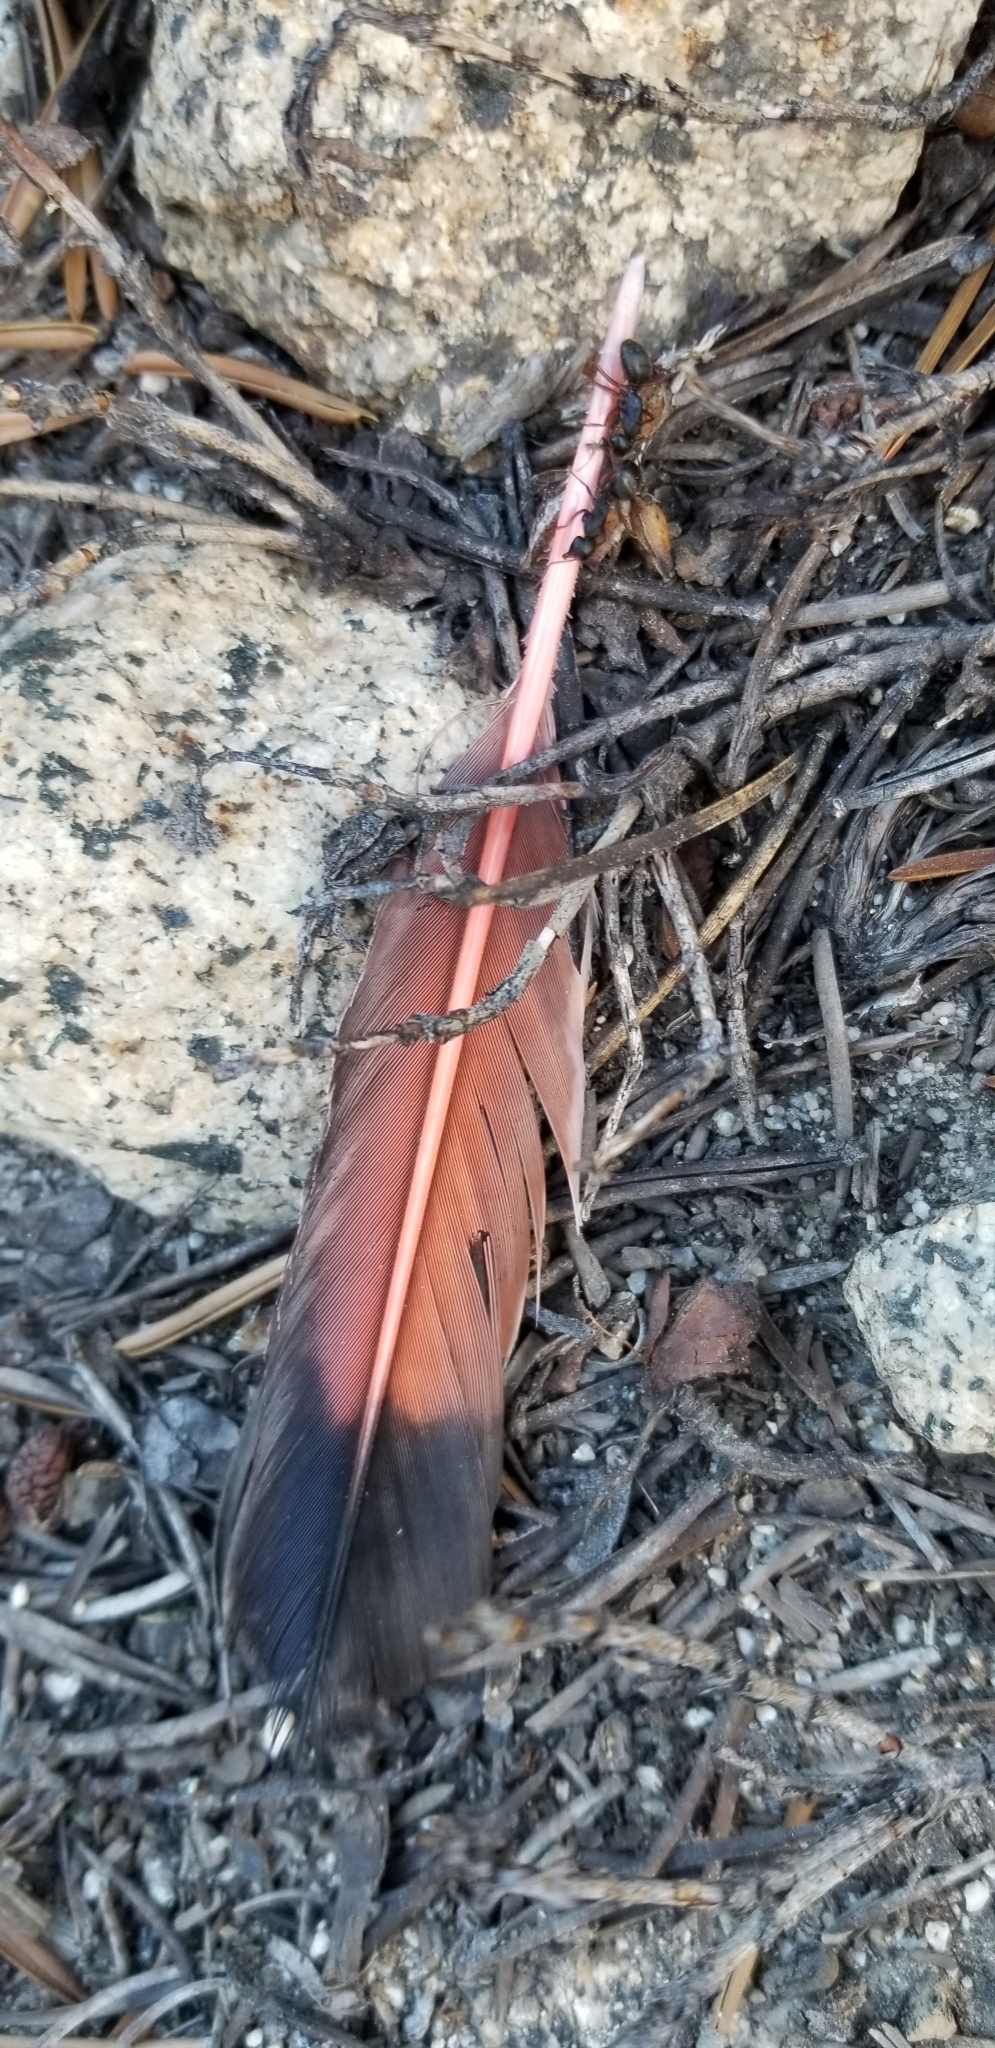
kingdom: Animalia
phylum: Chordata
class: Aves
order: Piciformes
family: Picidae
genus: Colaptes
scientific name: Colaptes auratus
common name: Northern flicker
